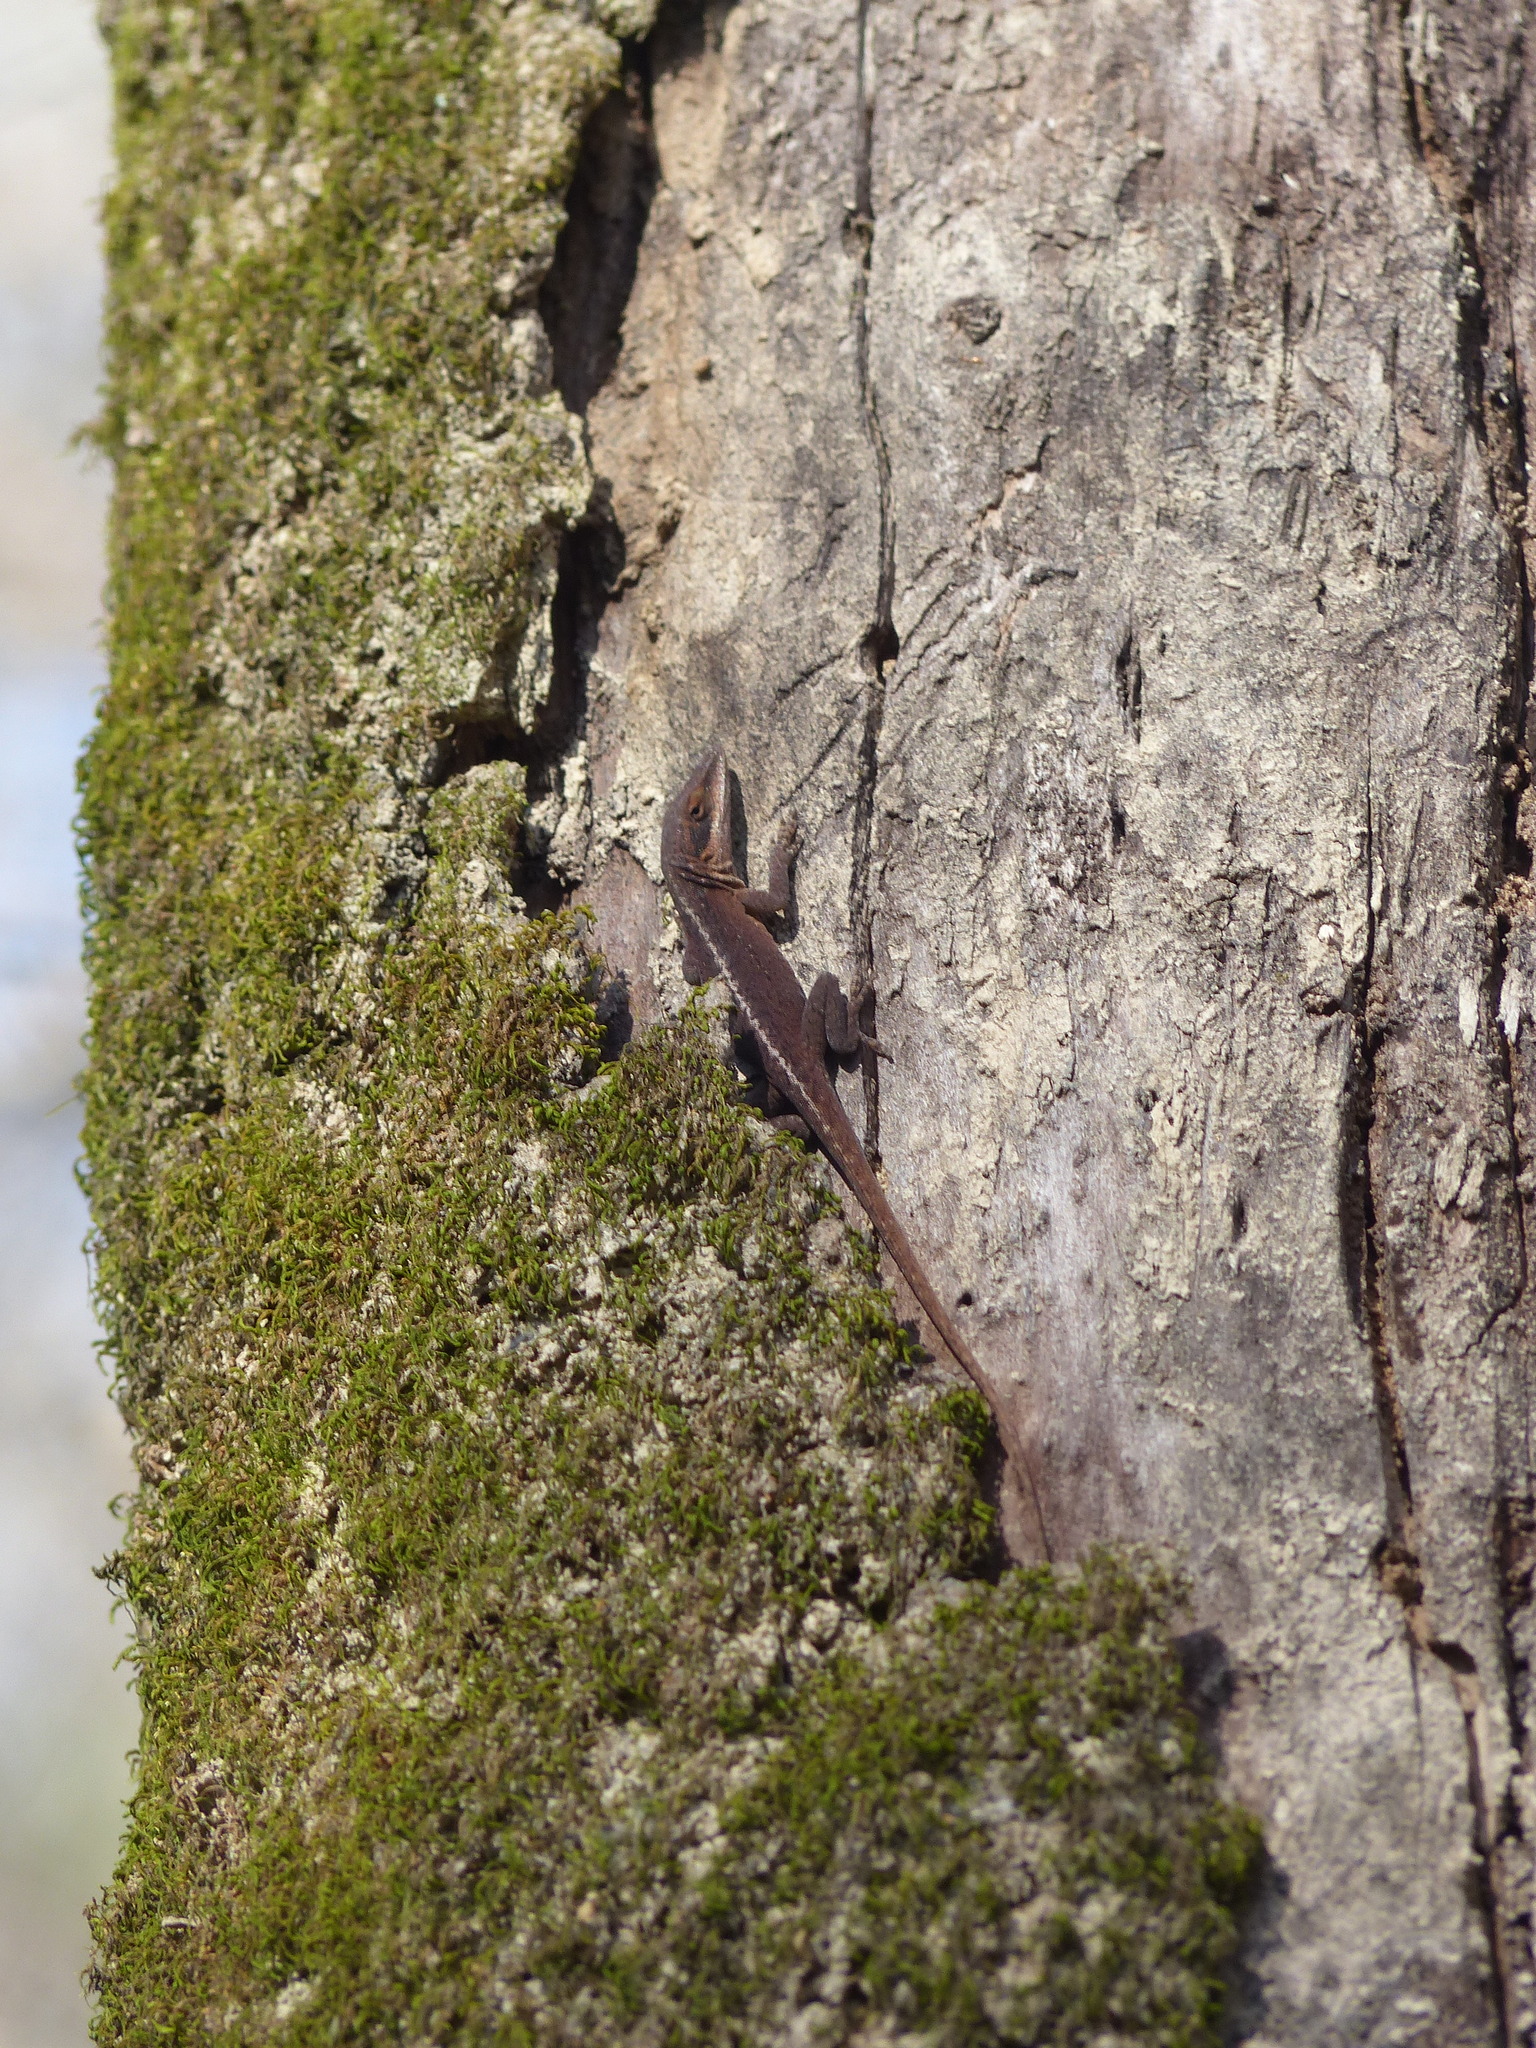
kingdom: Animalia
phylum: Chordata
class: Squamata
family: Dactyloidae
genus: Anolis
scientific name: Anolis carolinensis
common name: Green anole
